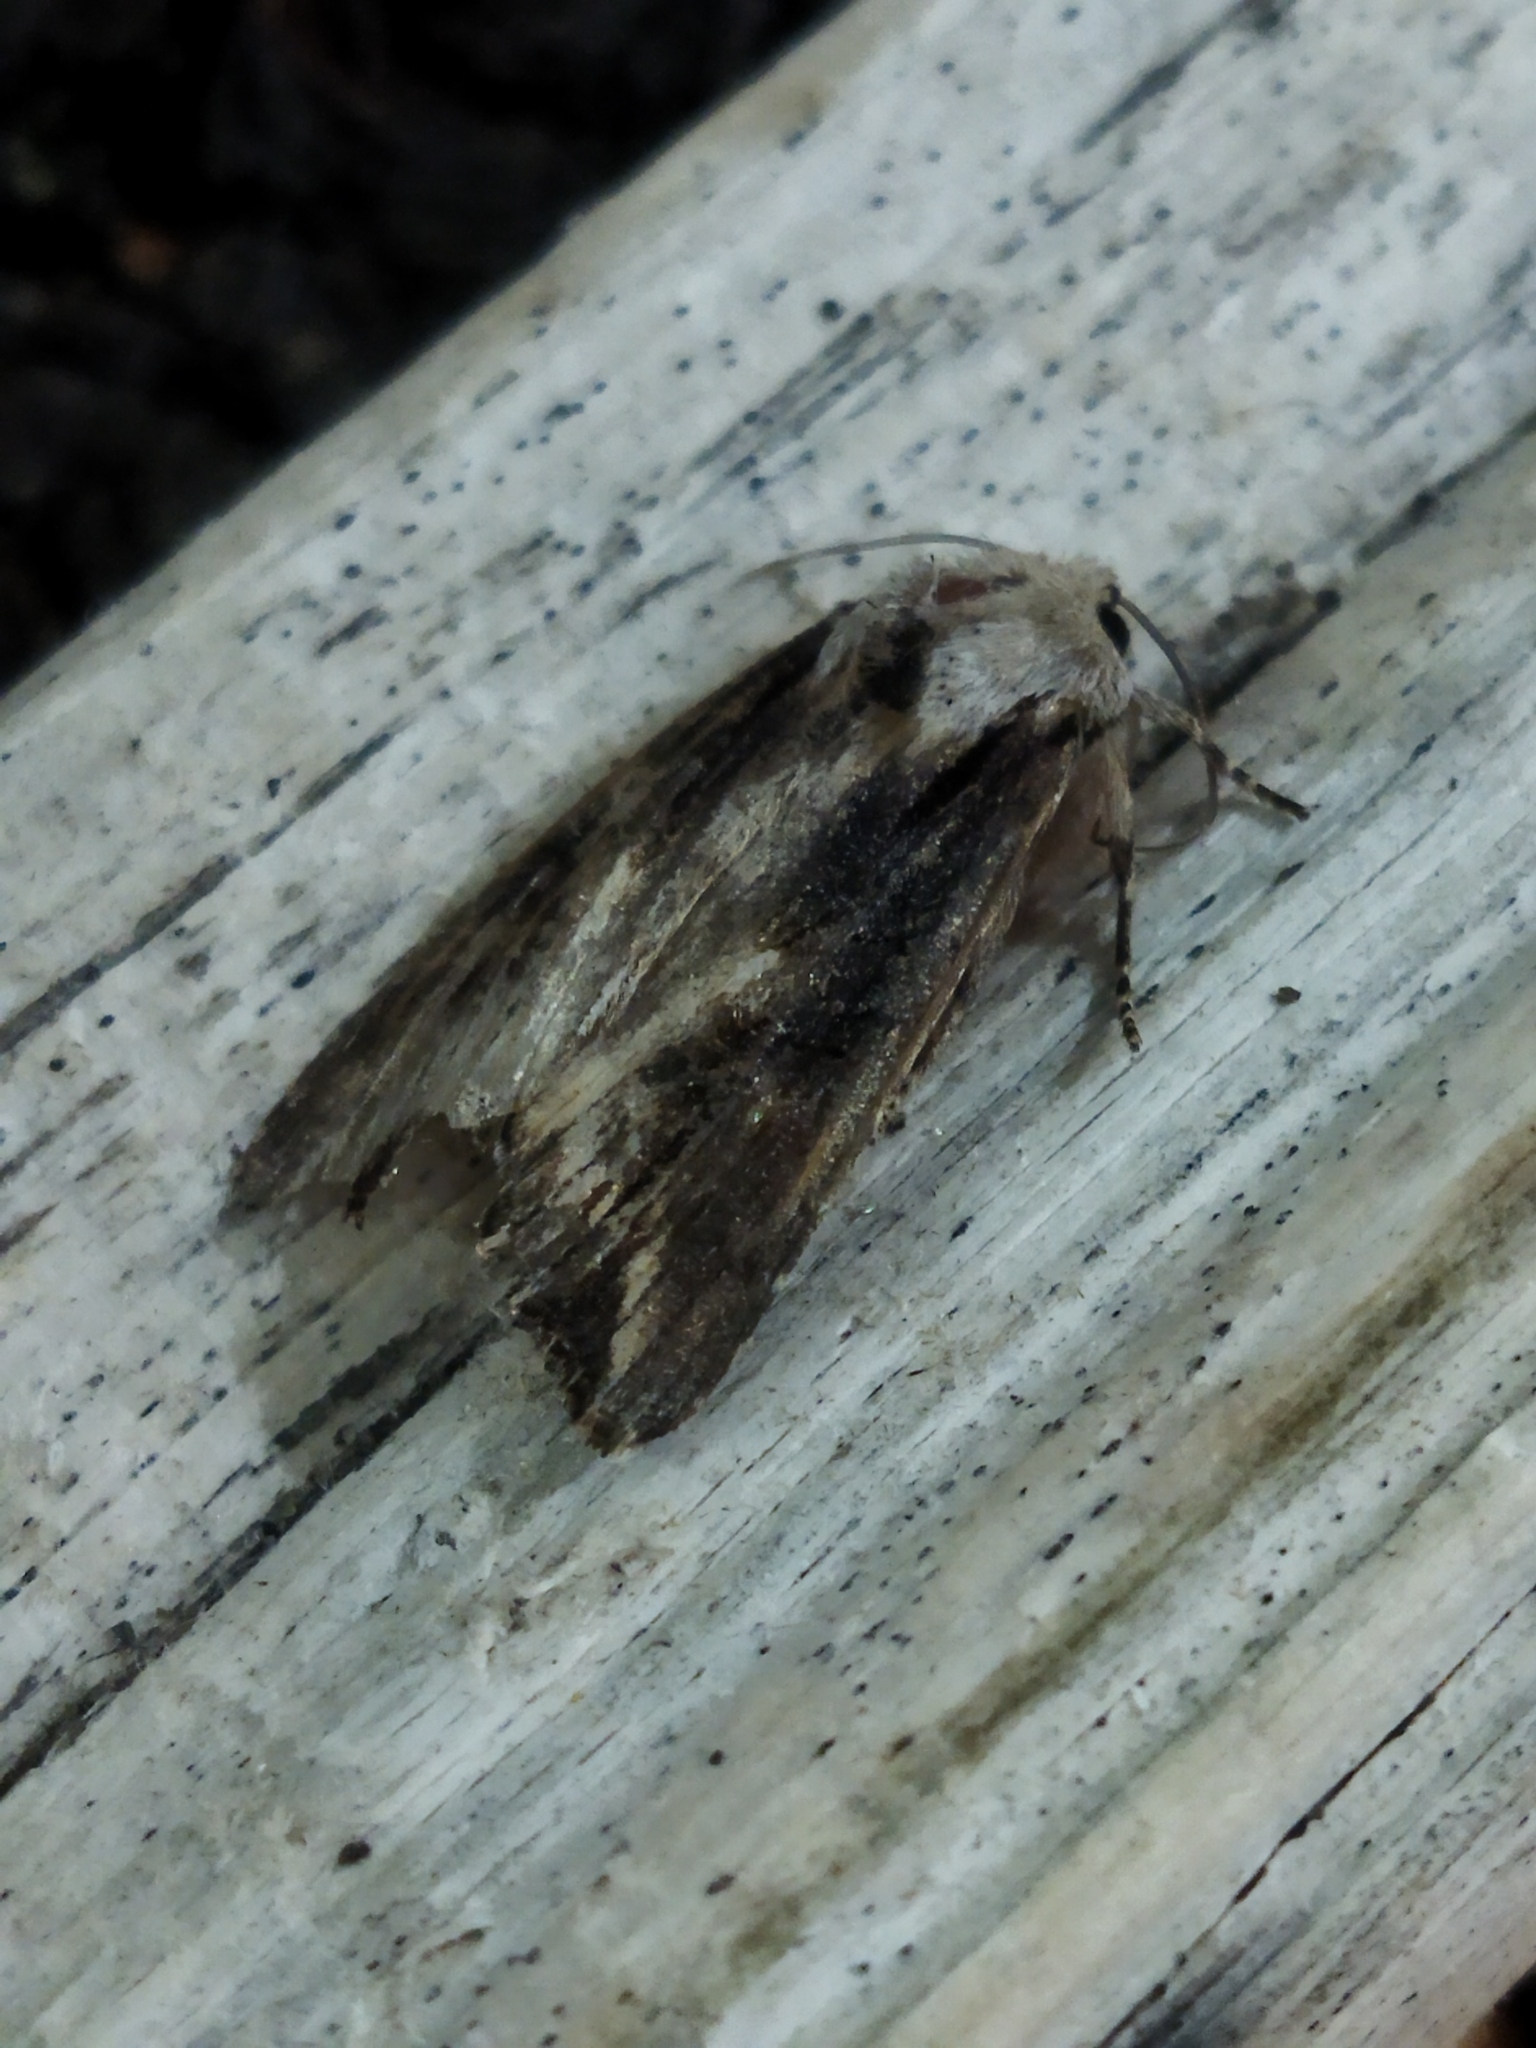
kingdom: Animalia
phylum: Arthropoda
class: Insecta
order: Lepidoptera
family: Noctuidae
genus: Egira
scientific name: Egira
